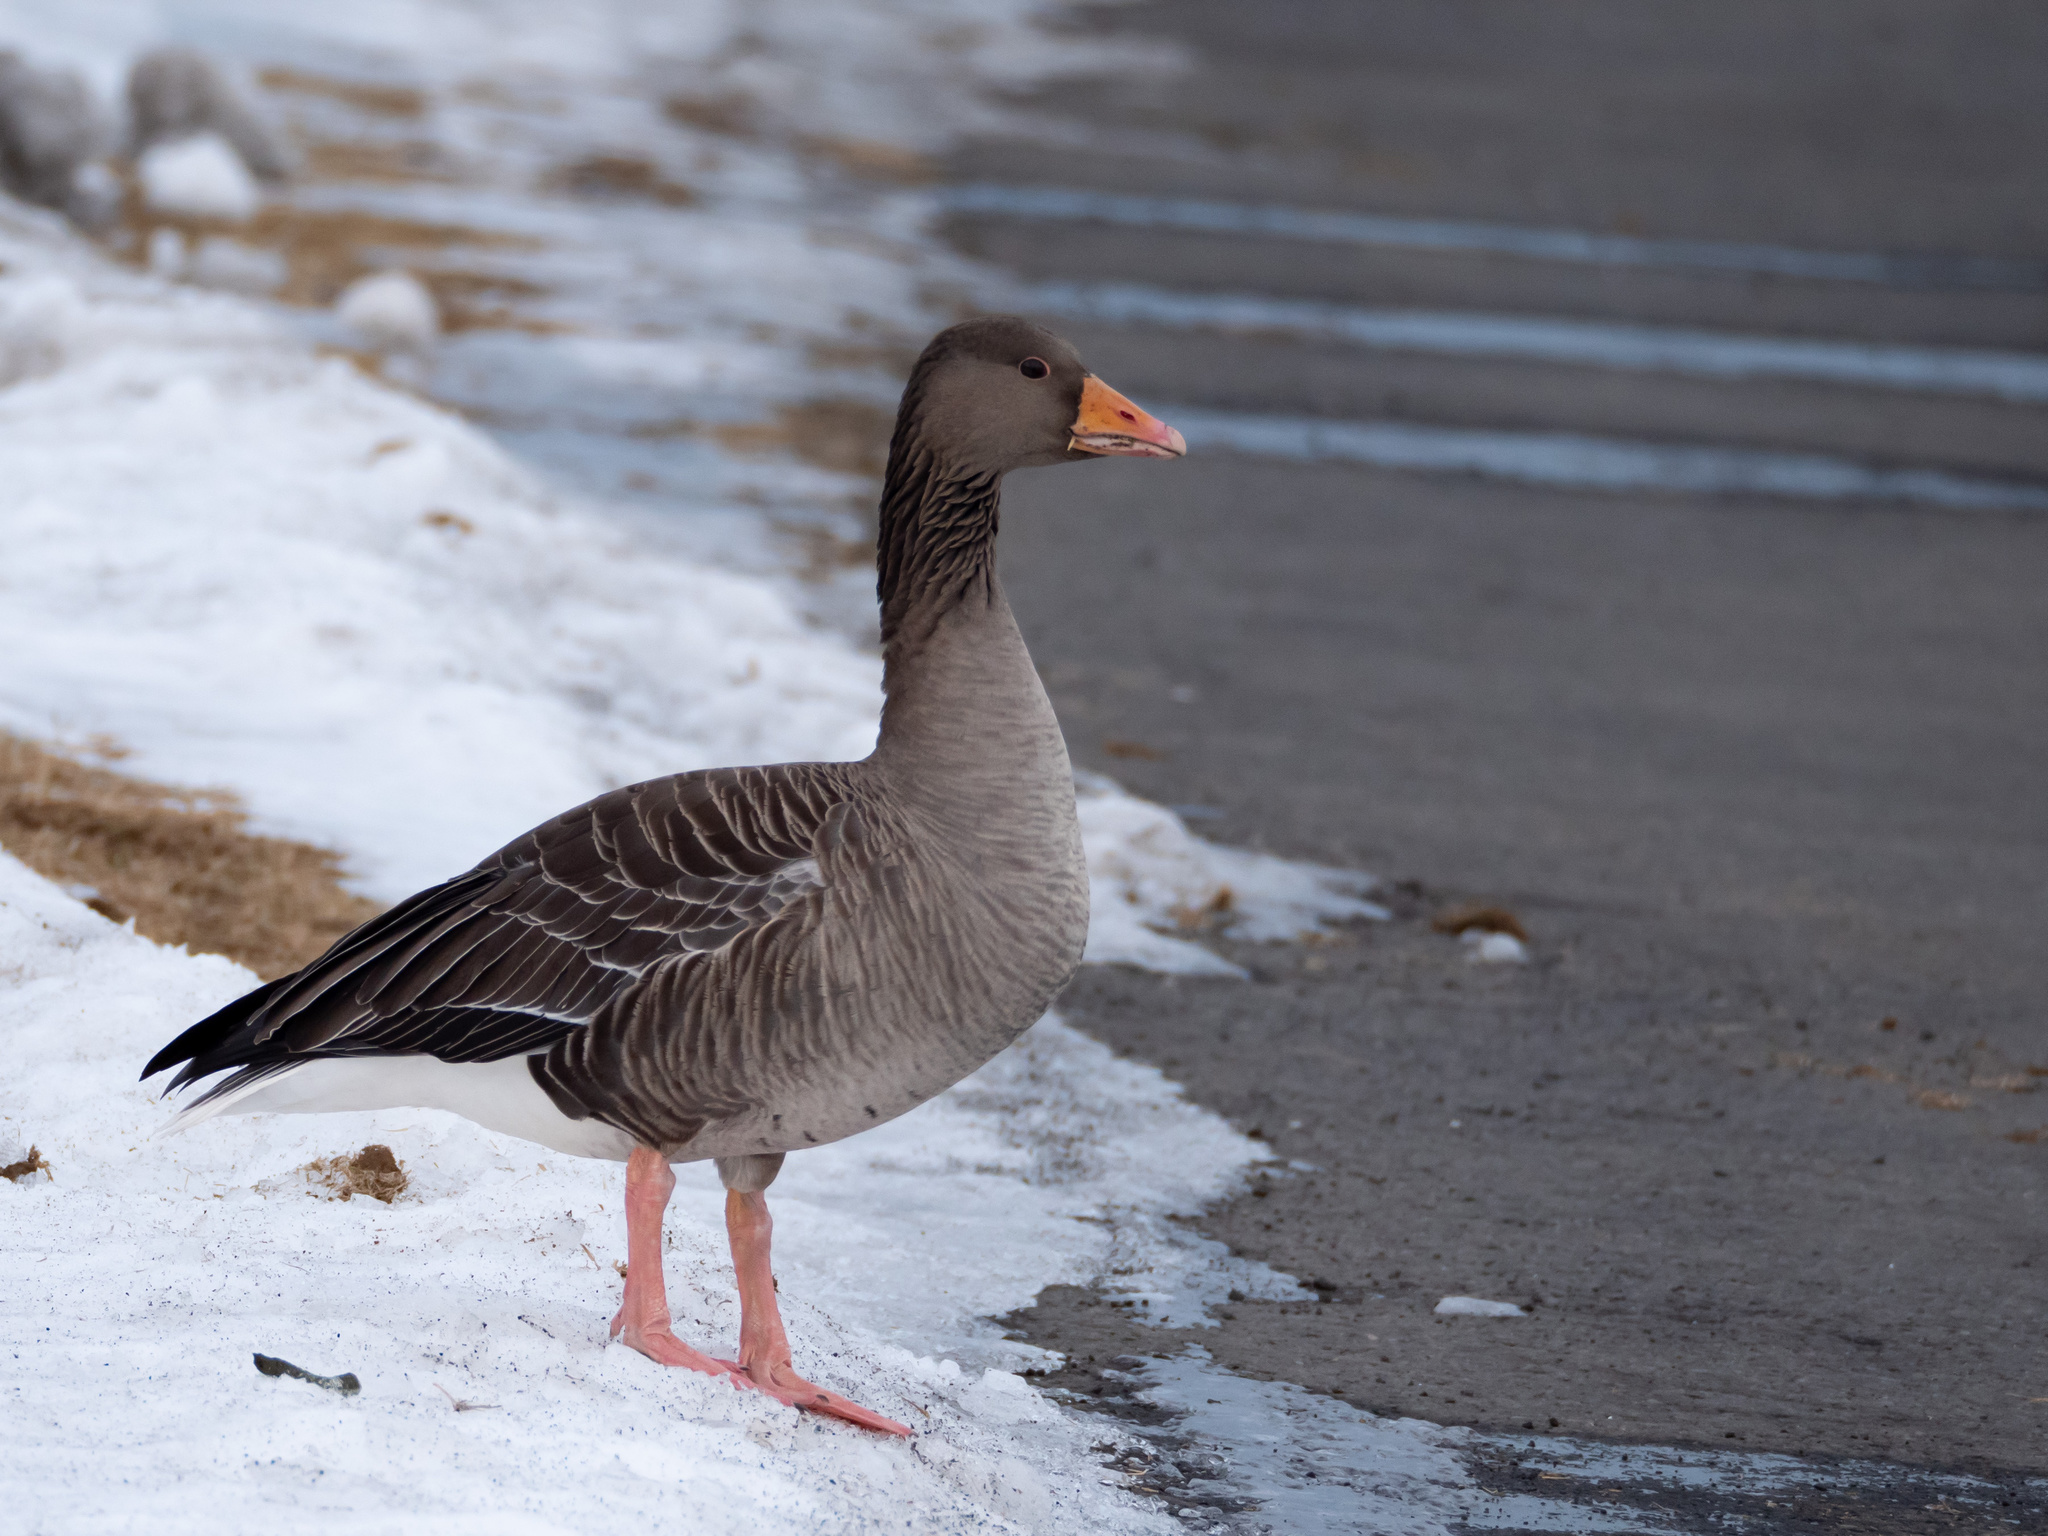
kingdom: Animalia
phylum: Chordata
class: Aves
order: Anseriformes
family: Anatidae
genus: Anser
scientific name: Anser anser
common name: Greylag goose
